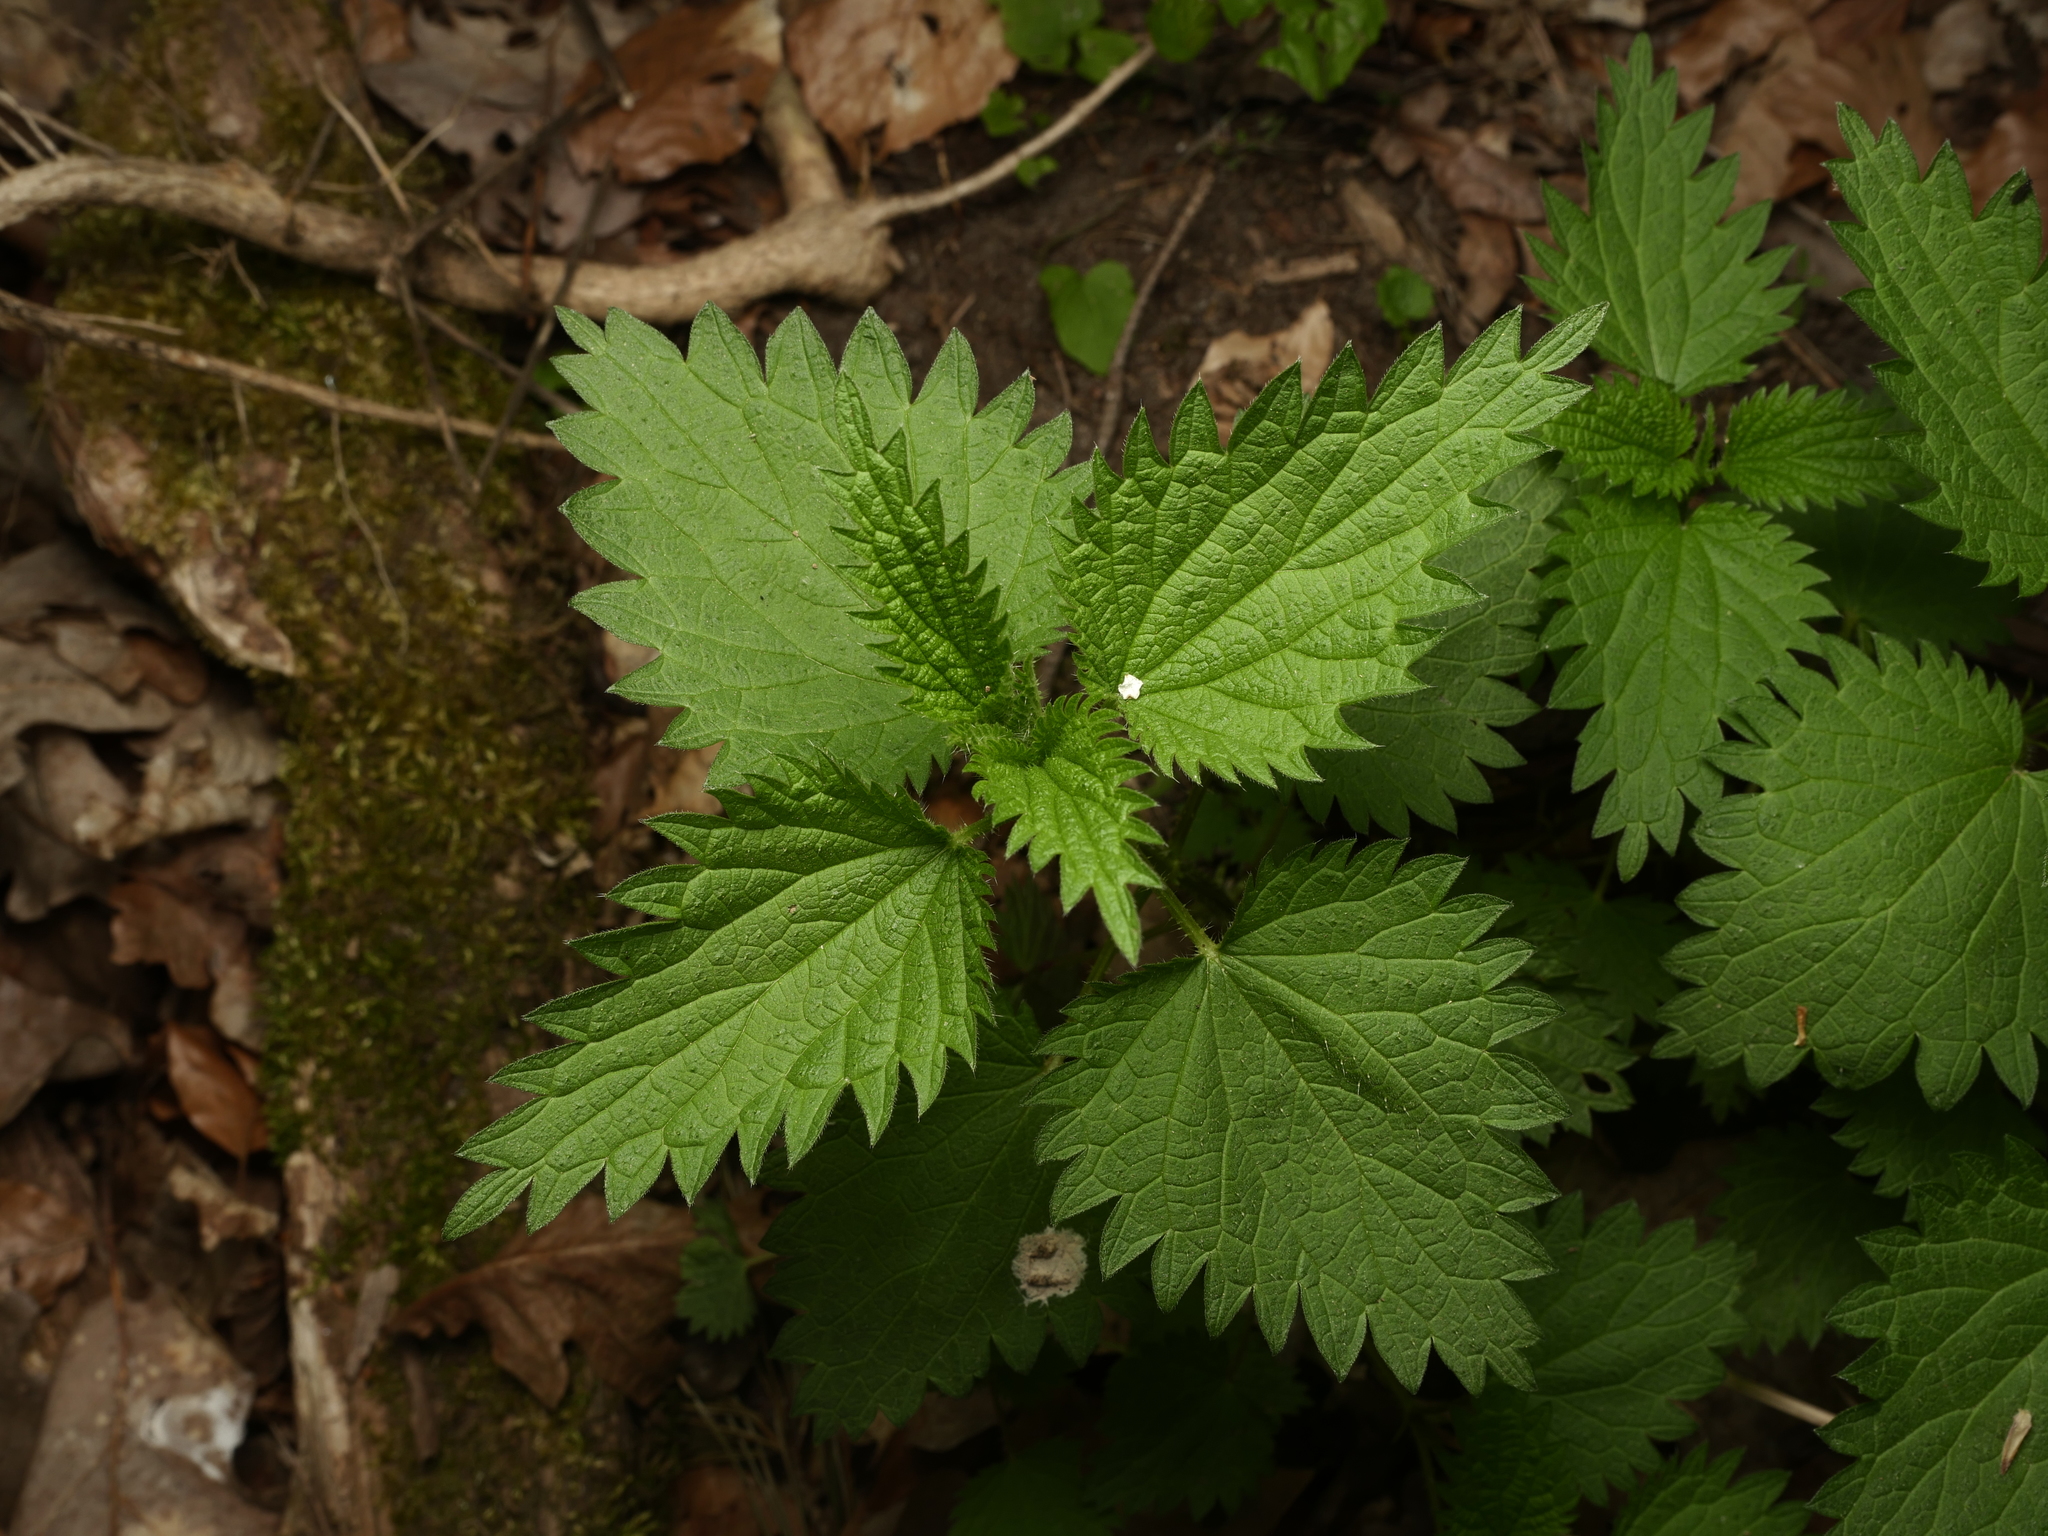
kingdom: Plantae
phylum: Tracheophyta
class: Magnoliopsida
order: Rosales
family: Urticaceae
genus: Urtica
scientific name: Urtica dioica
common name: Common nettle
